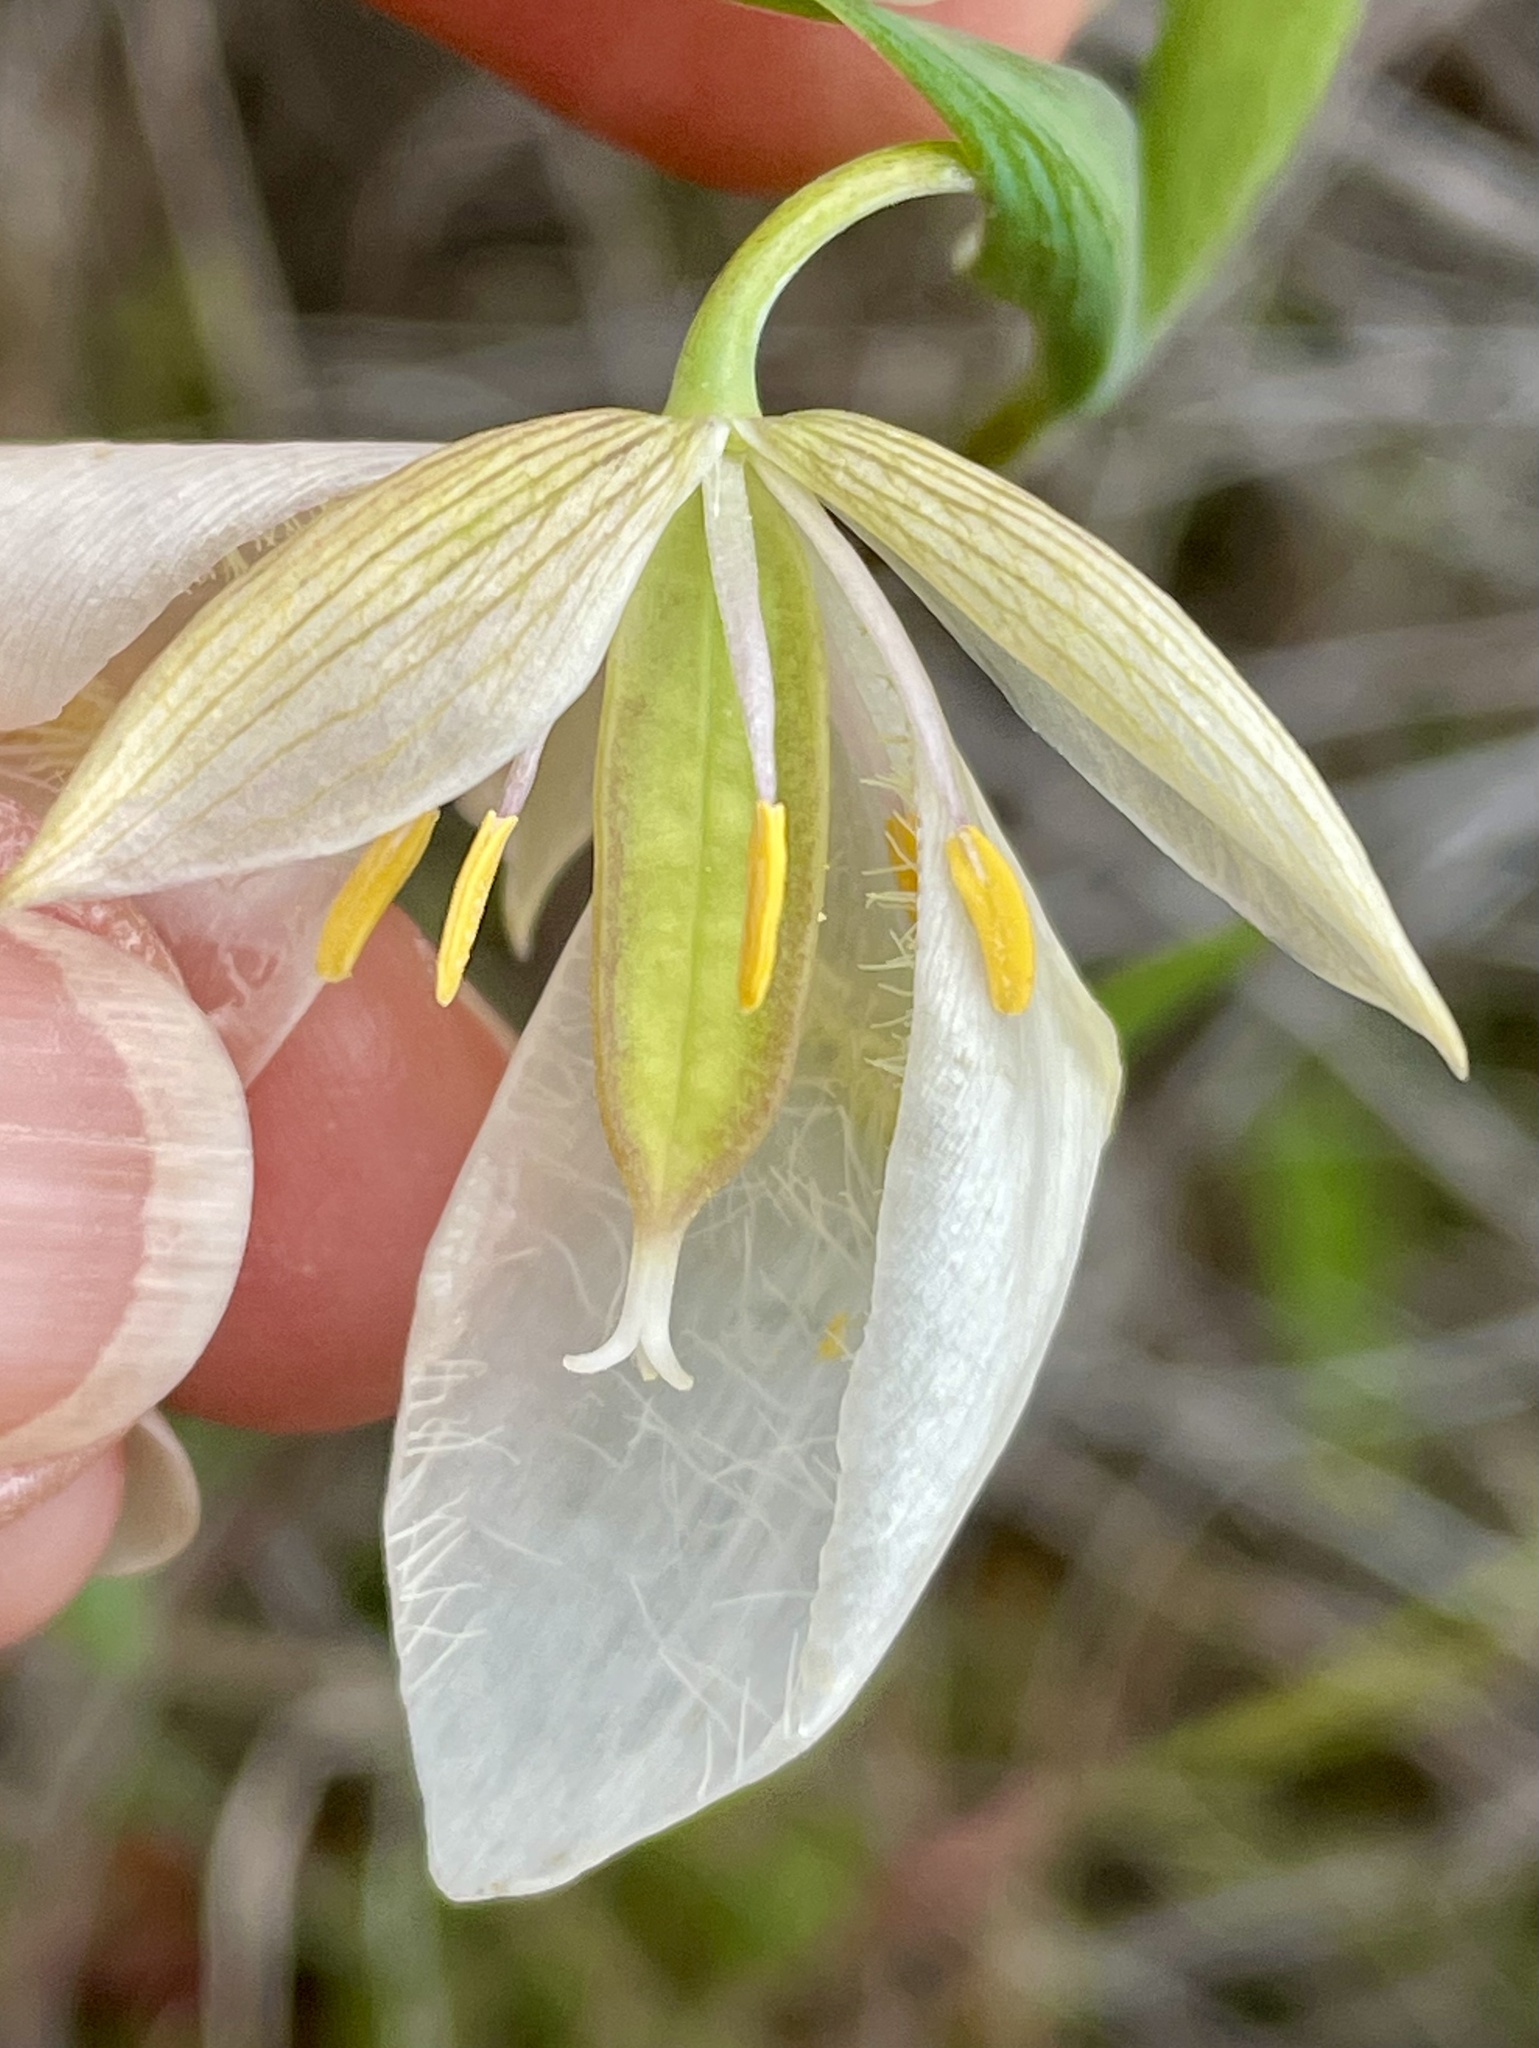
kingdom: Plantae
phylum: Tracheophyta
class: Liliopsida
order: Liliales
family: Liliaceae
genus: Calochortus
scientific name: Calochortus albus
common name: Fairy-lantern
